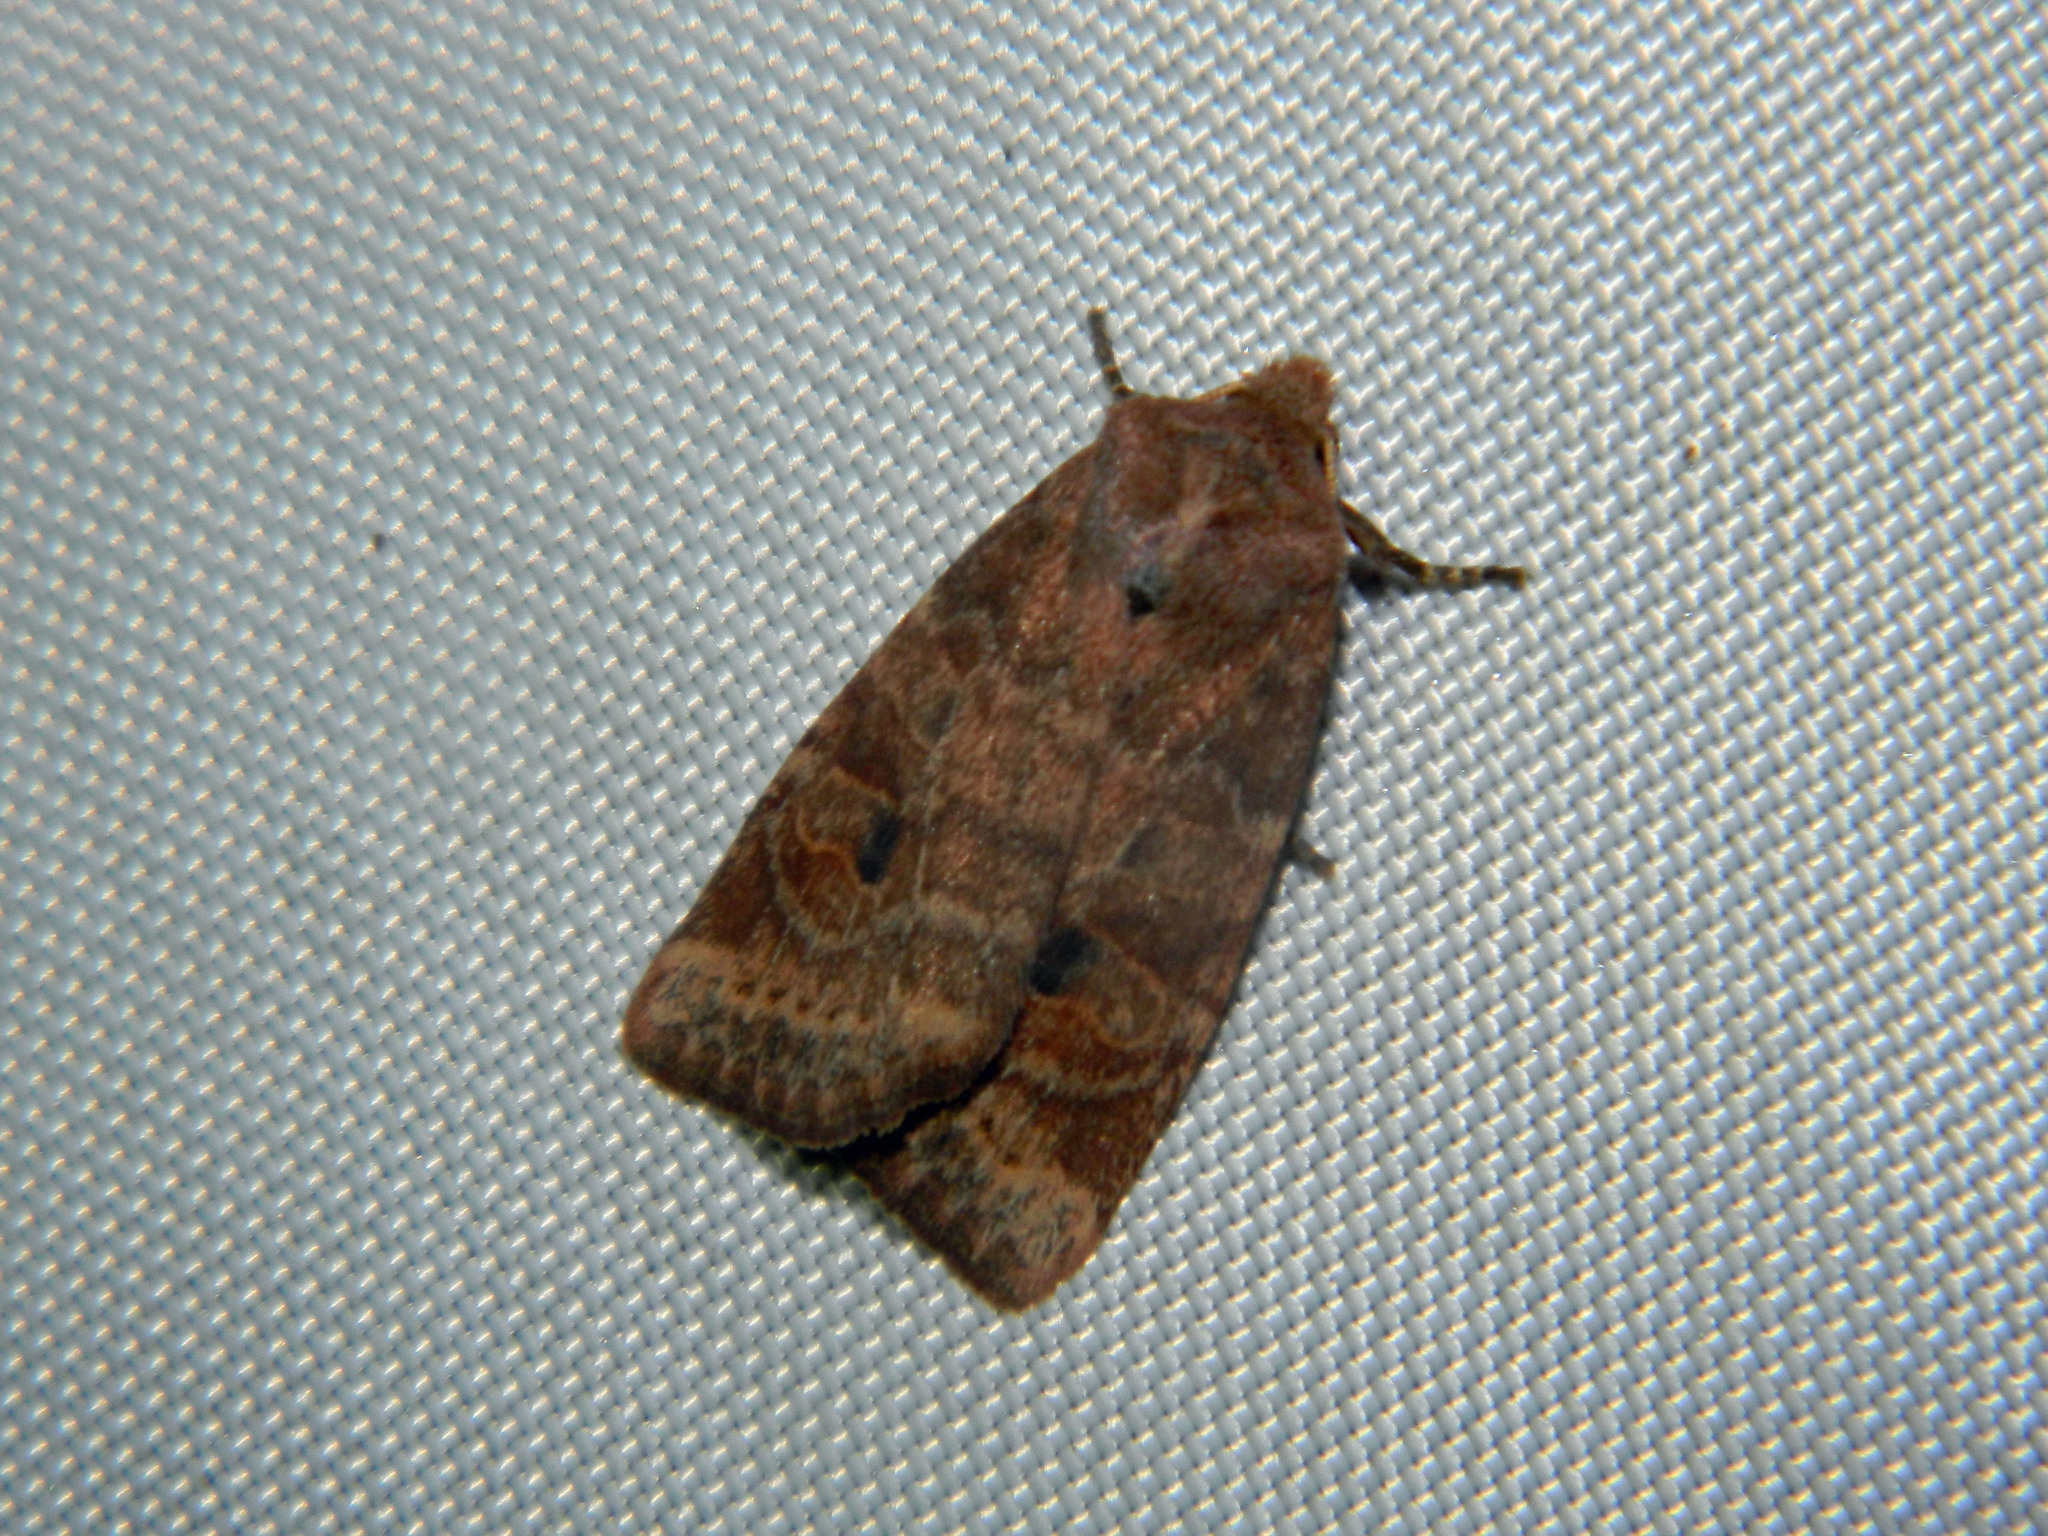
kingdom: Animalia
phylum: Arthropoda
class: Insecta
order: Lepidoptera
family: Noctuidae
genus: Anathix
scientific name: Anathix puta
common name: Puta sallow
